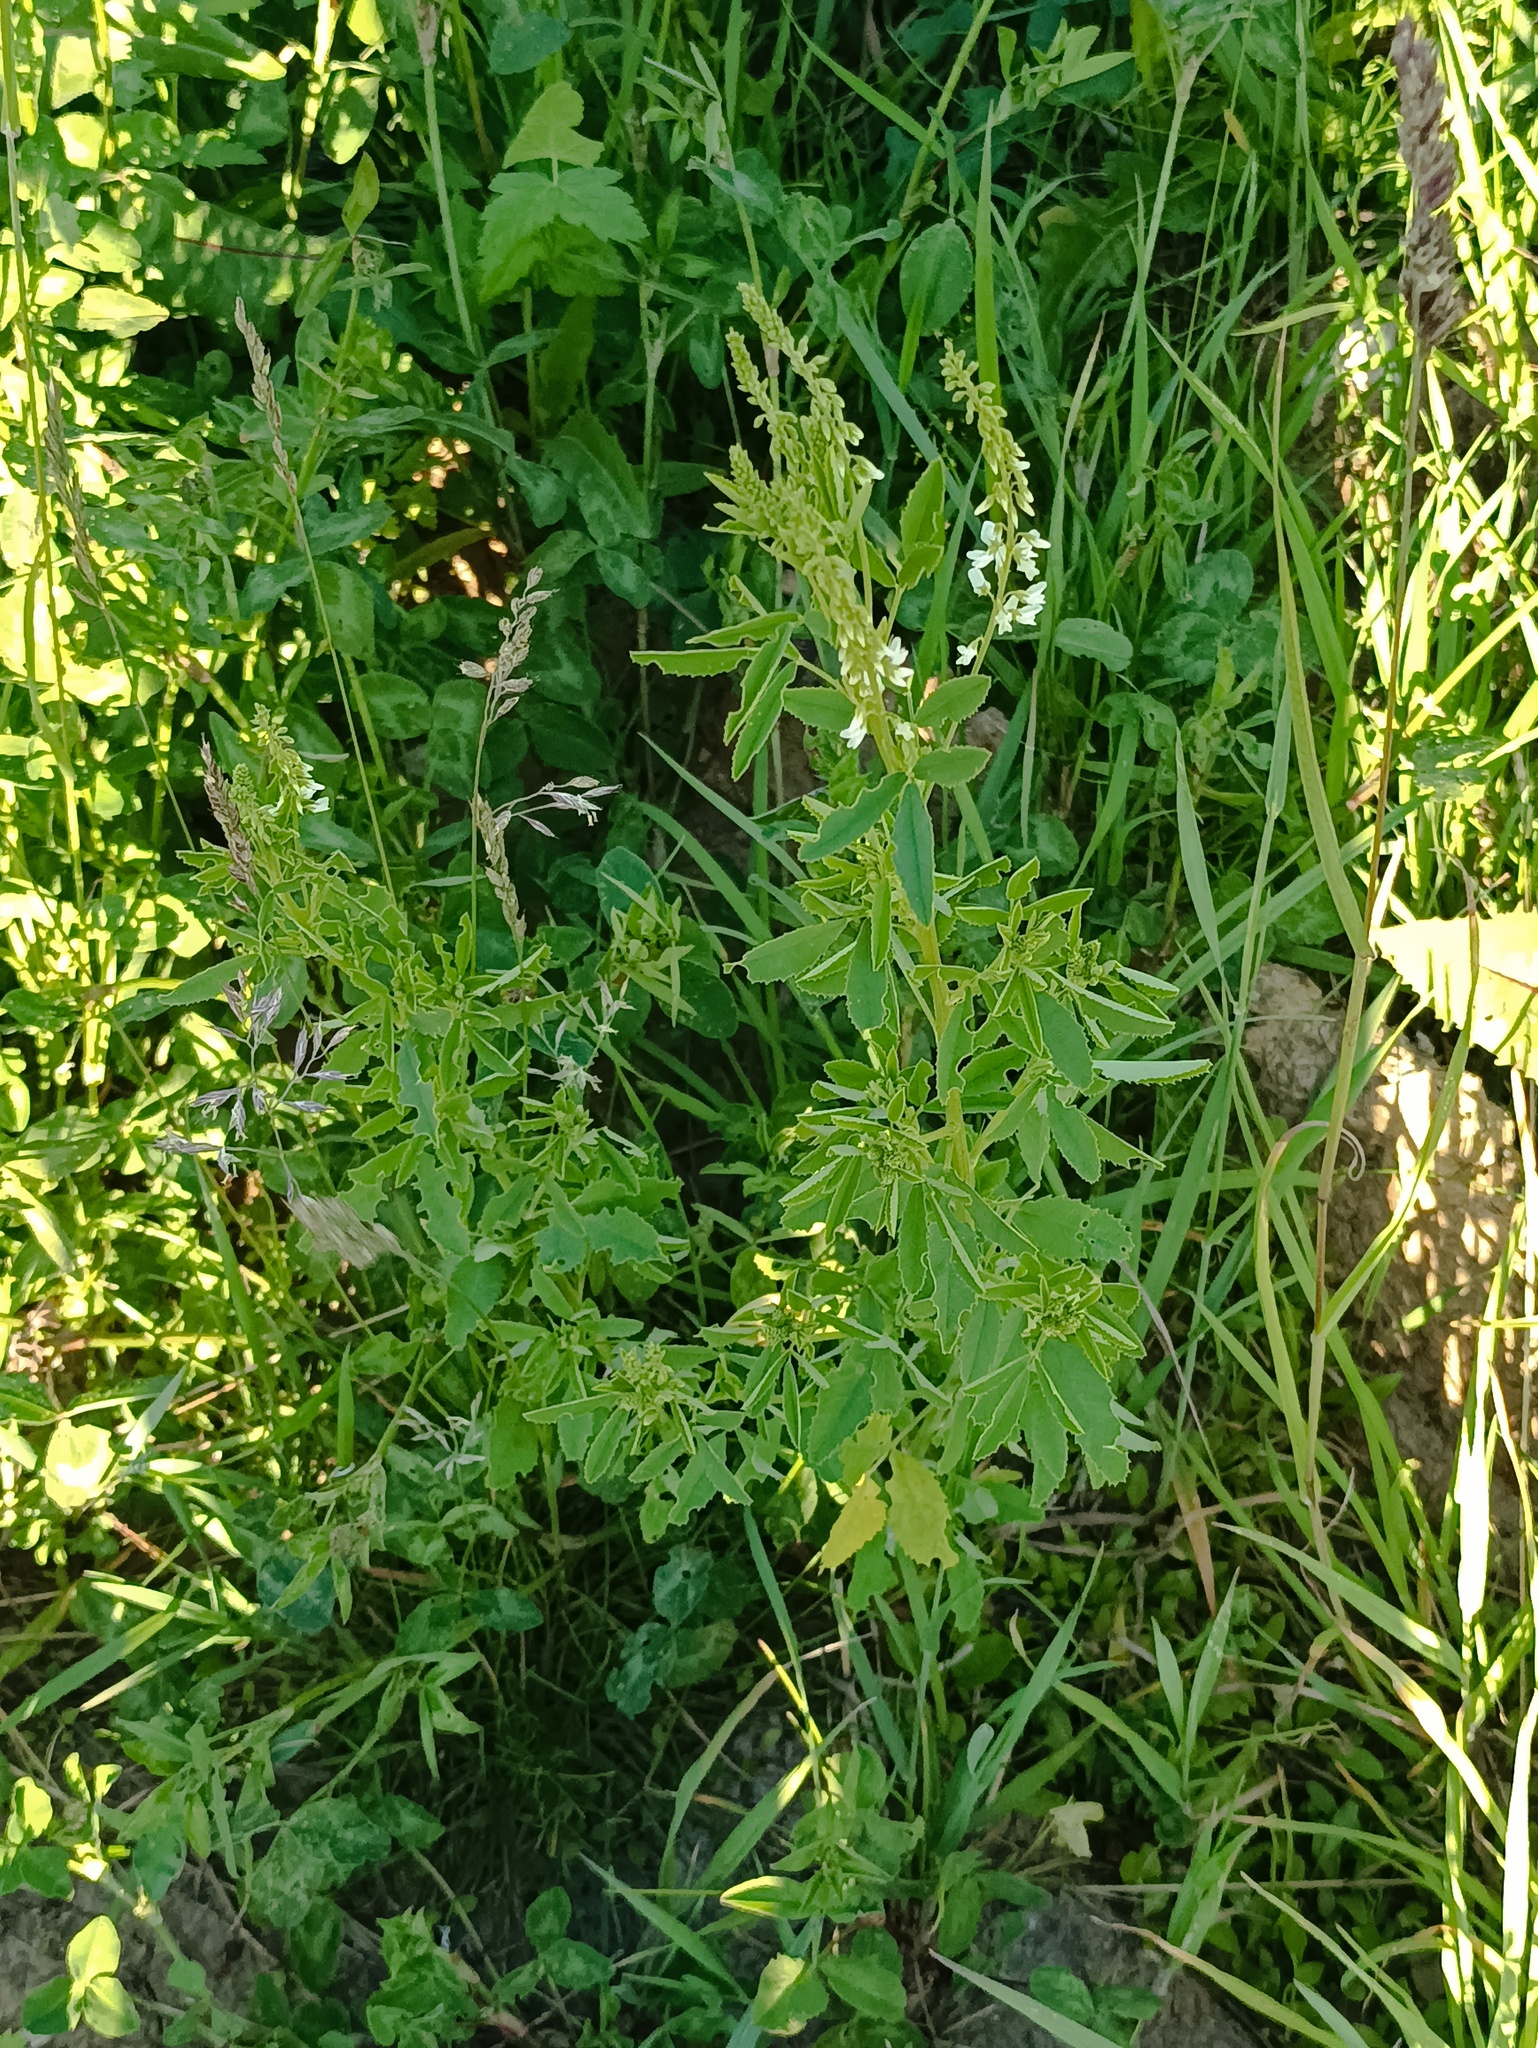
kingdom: Plantae
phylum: Tracheophyta
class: Magnoliopsida
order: Fabales
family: Fabaceae
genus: Melilotus
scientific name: Melilotus albus
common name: White melilot
